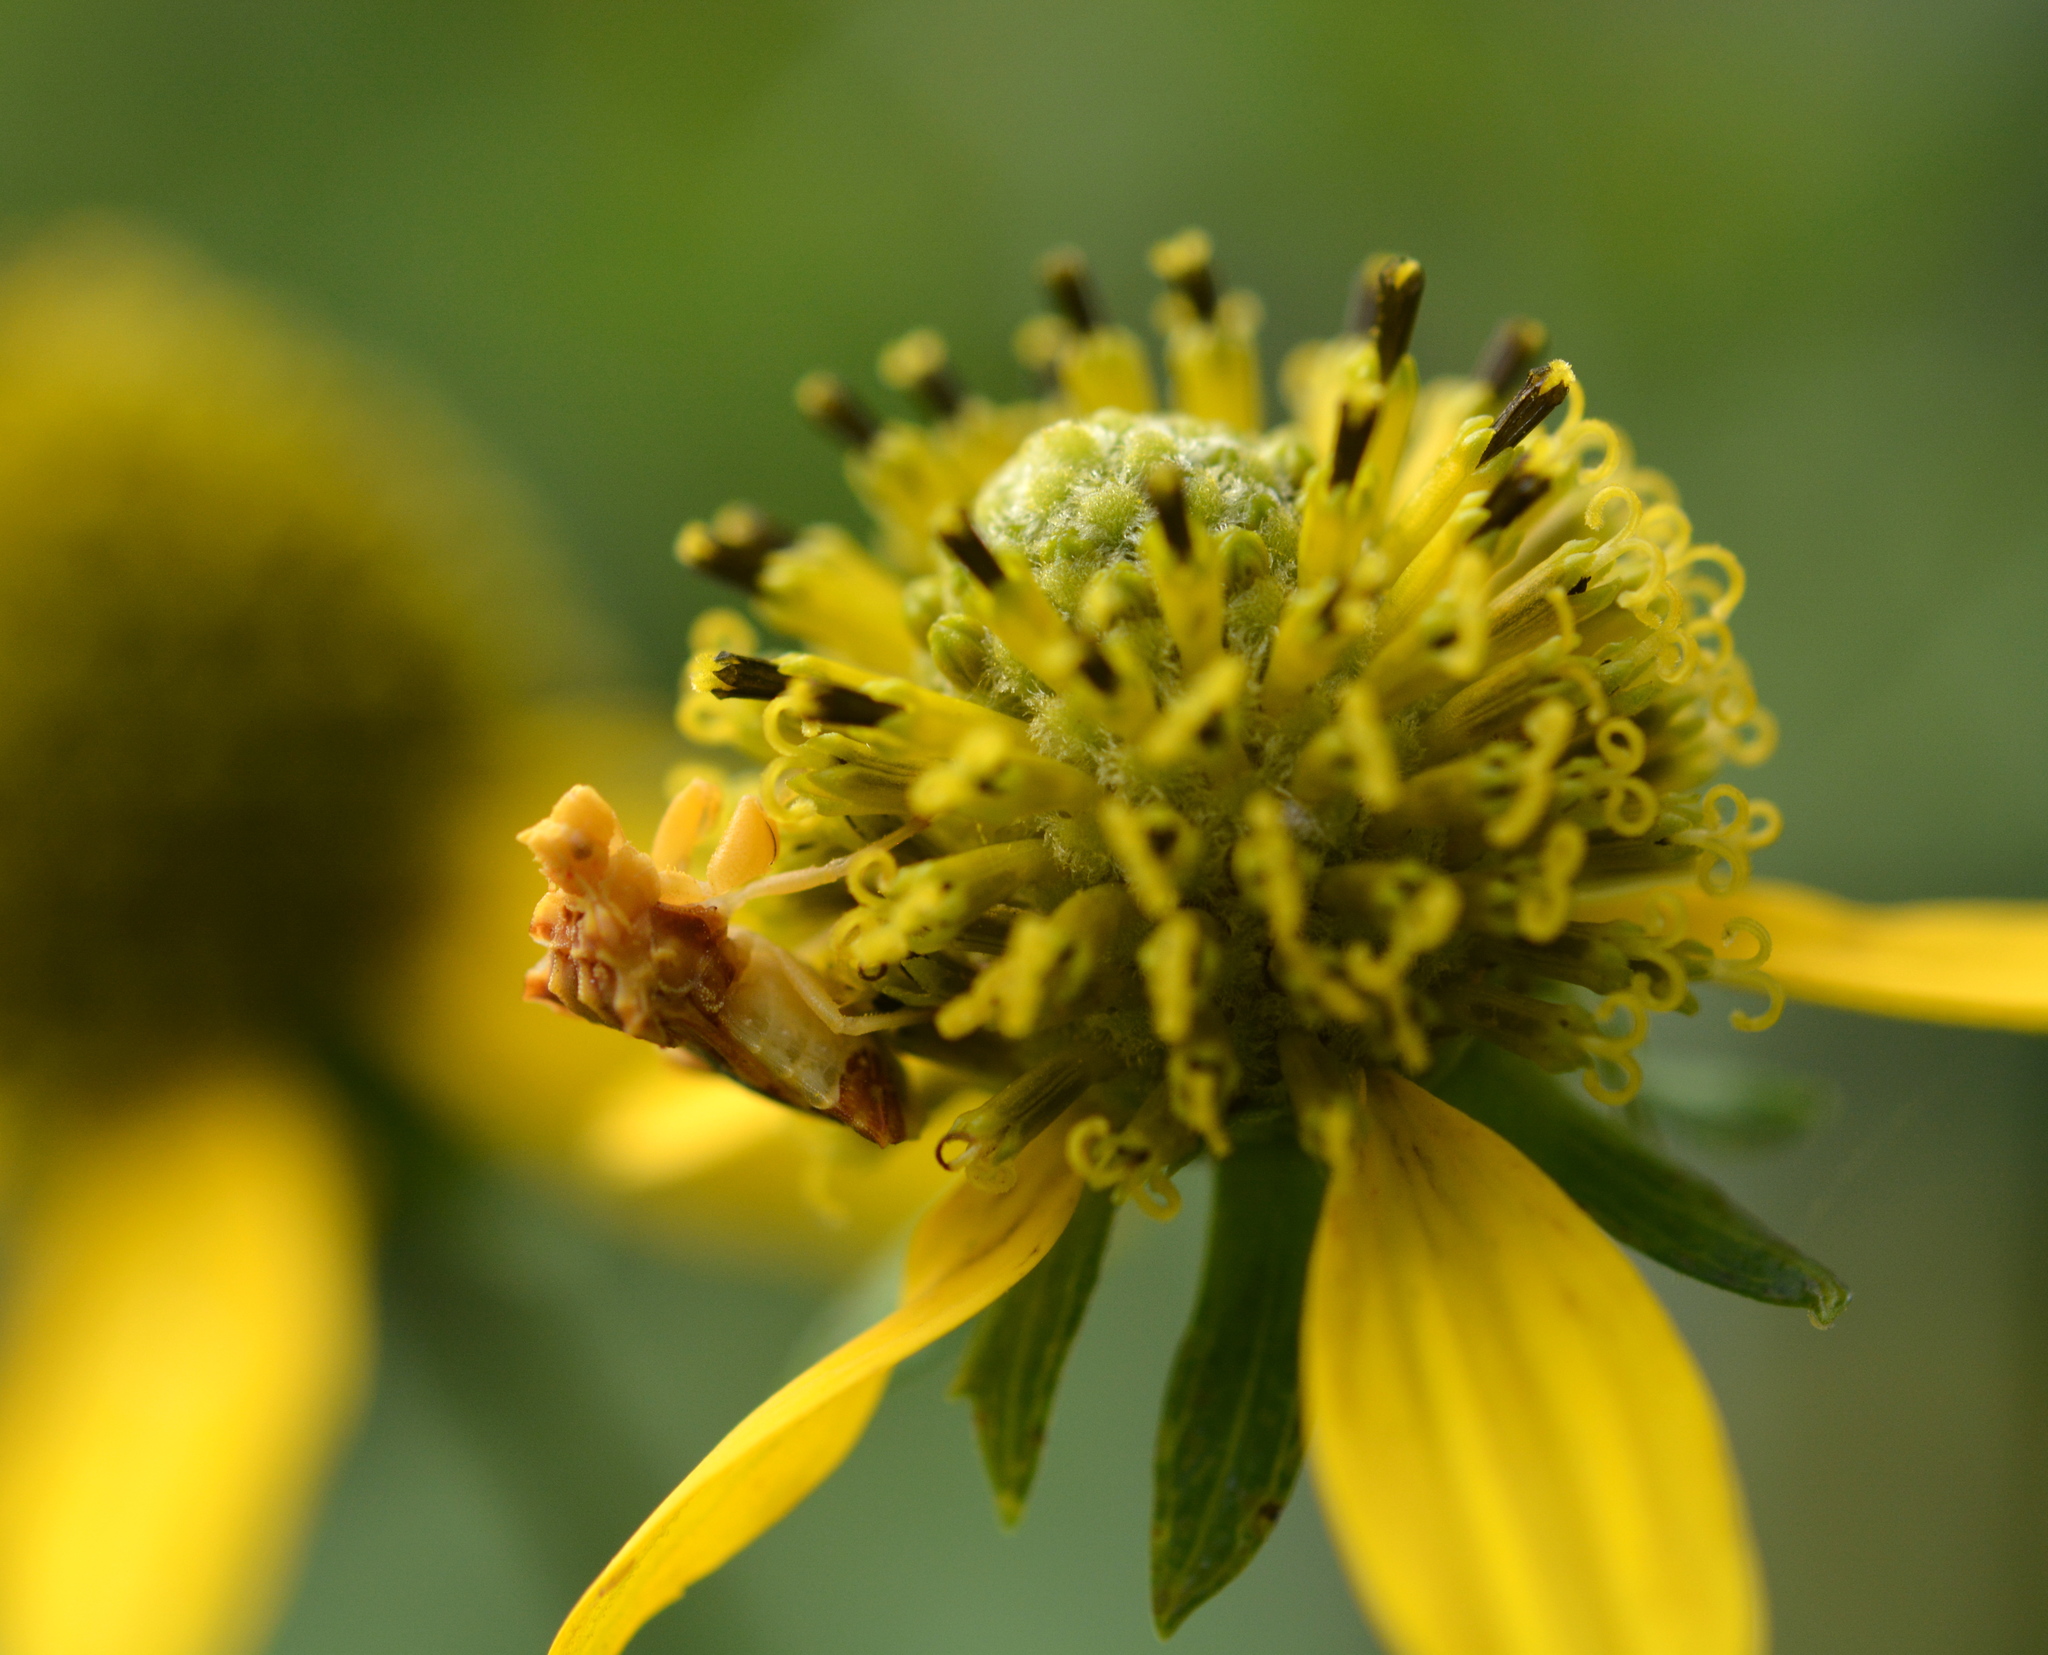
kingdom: Animalia
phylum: Arthropoda
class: Insecta
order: Hemiptera
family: Reduviidae
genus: Phymata
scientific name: Phymata fasciata
